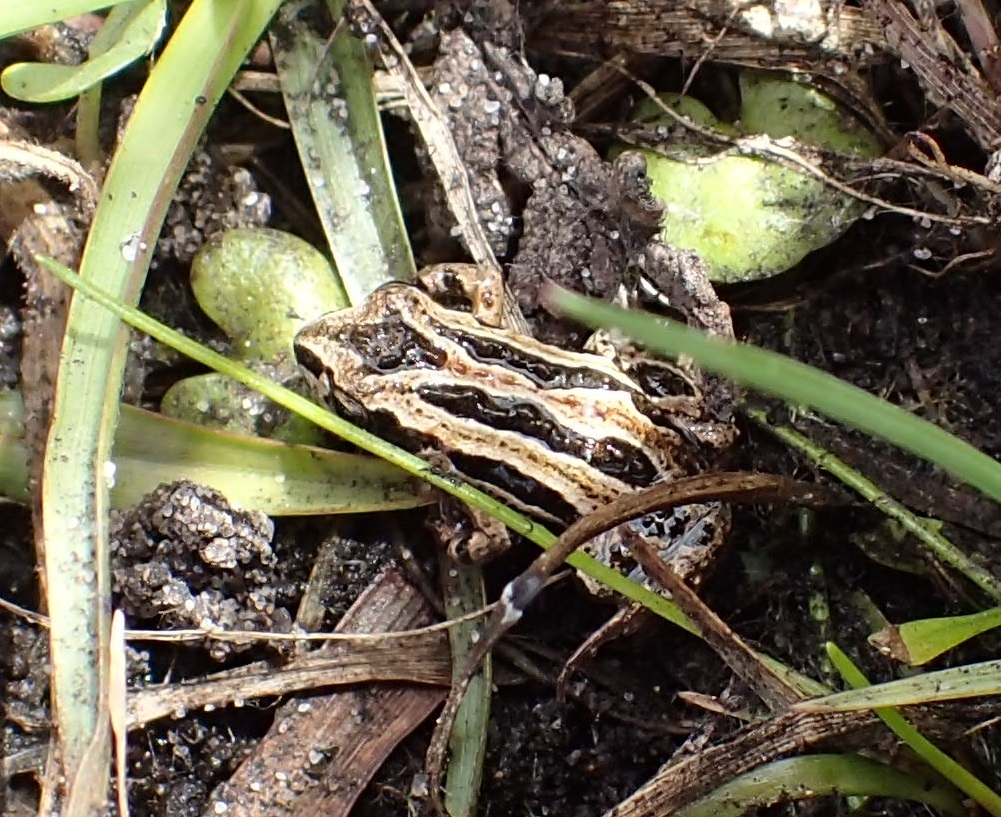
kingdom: Animalia
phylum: Chordata
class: Amphibia
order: Anura
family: Myobatrachidae
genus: Crinia
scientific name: Crinia signifera
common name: Brown froglet
